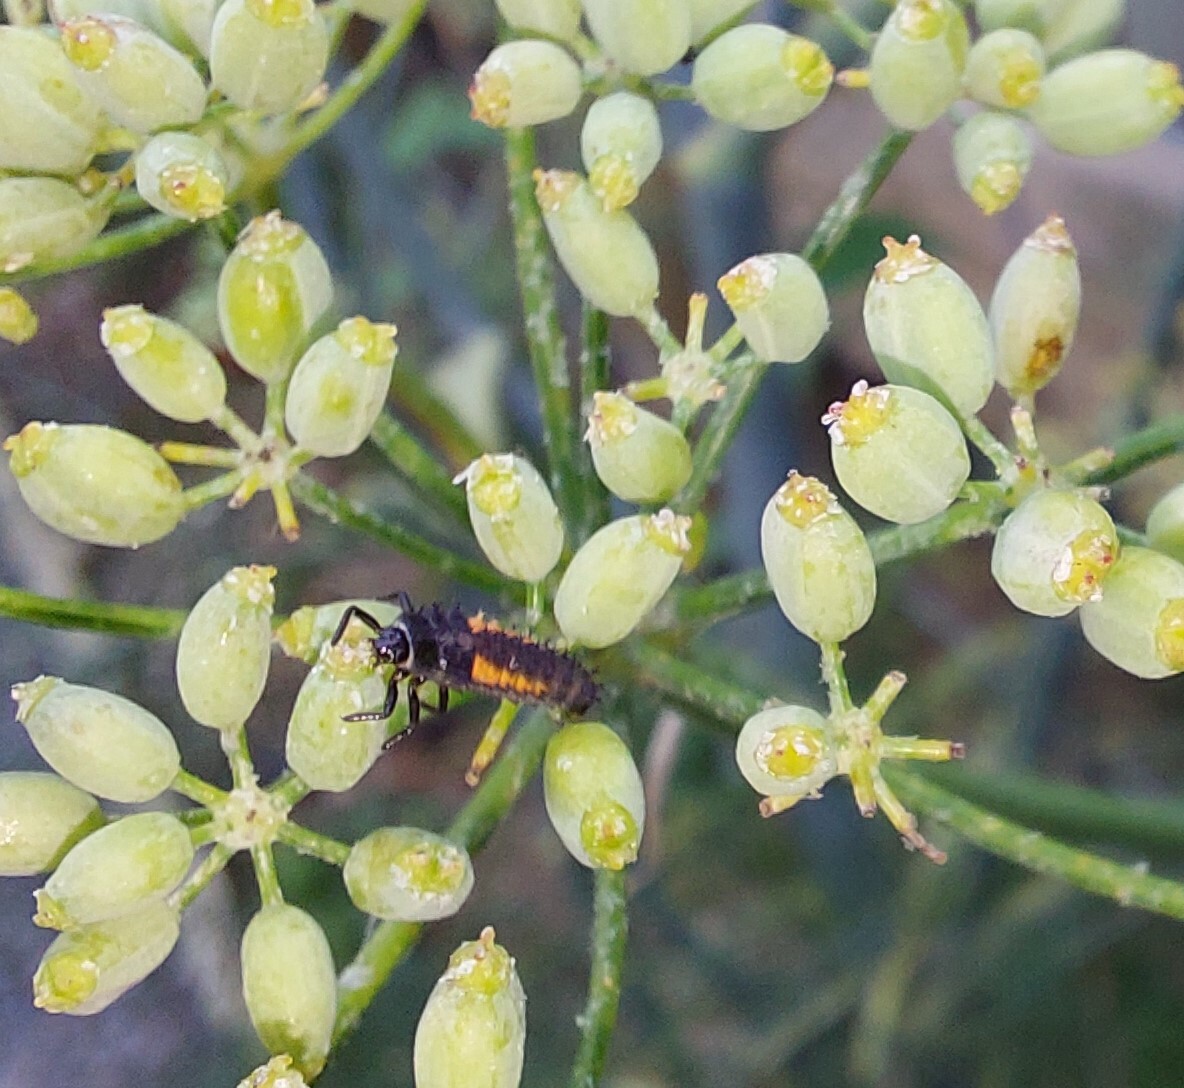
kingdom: Animalia
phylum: Arthropoda
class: Insecta
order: Coleoptera
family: Coccinellidae
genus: Harmonia
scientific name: Harmonia axyridis
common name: Harlequin ladybird
